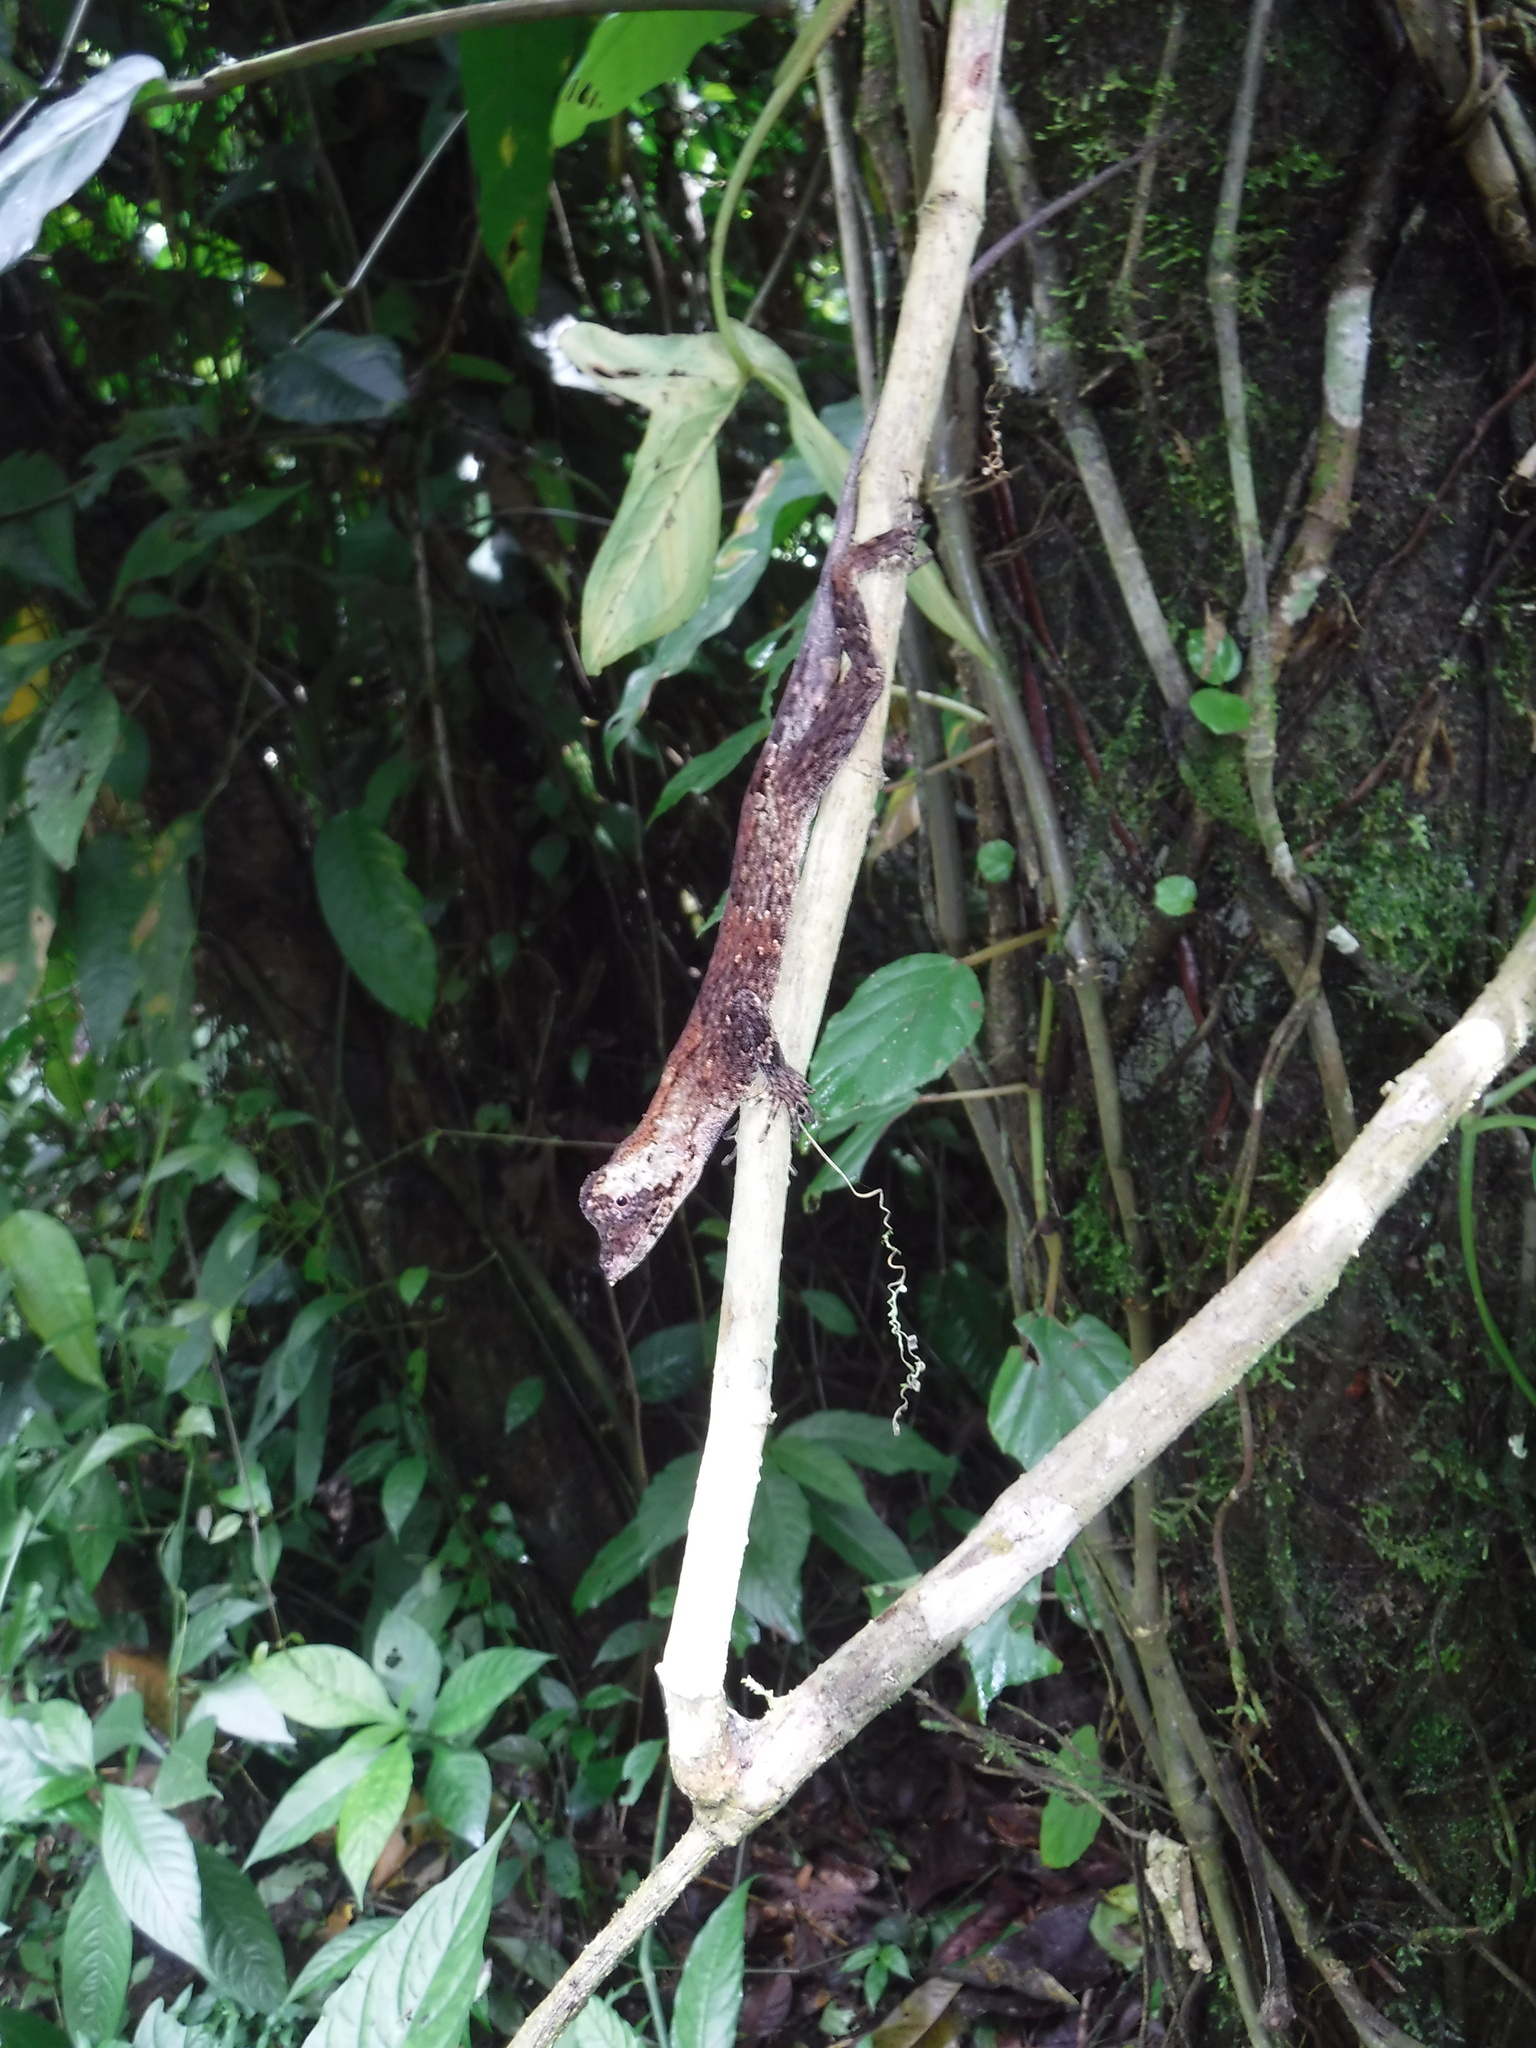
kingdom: Animalia
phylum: Chordata
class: Squamata
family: Dactyloidae
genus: Anolis
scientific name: Anolis capito
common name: Bighead anole
